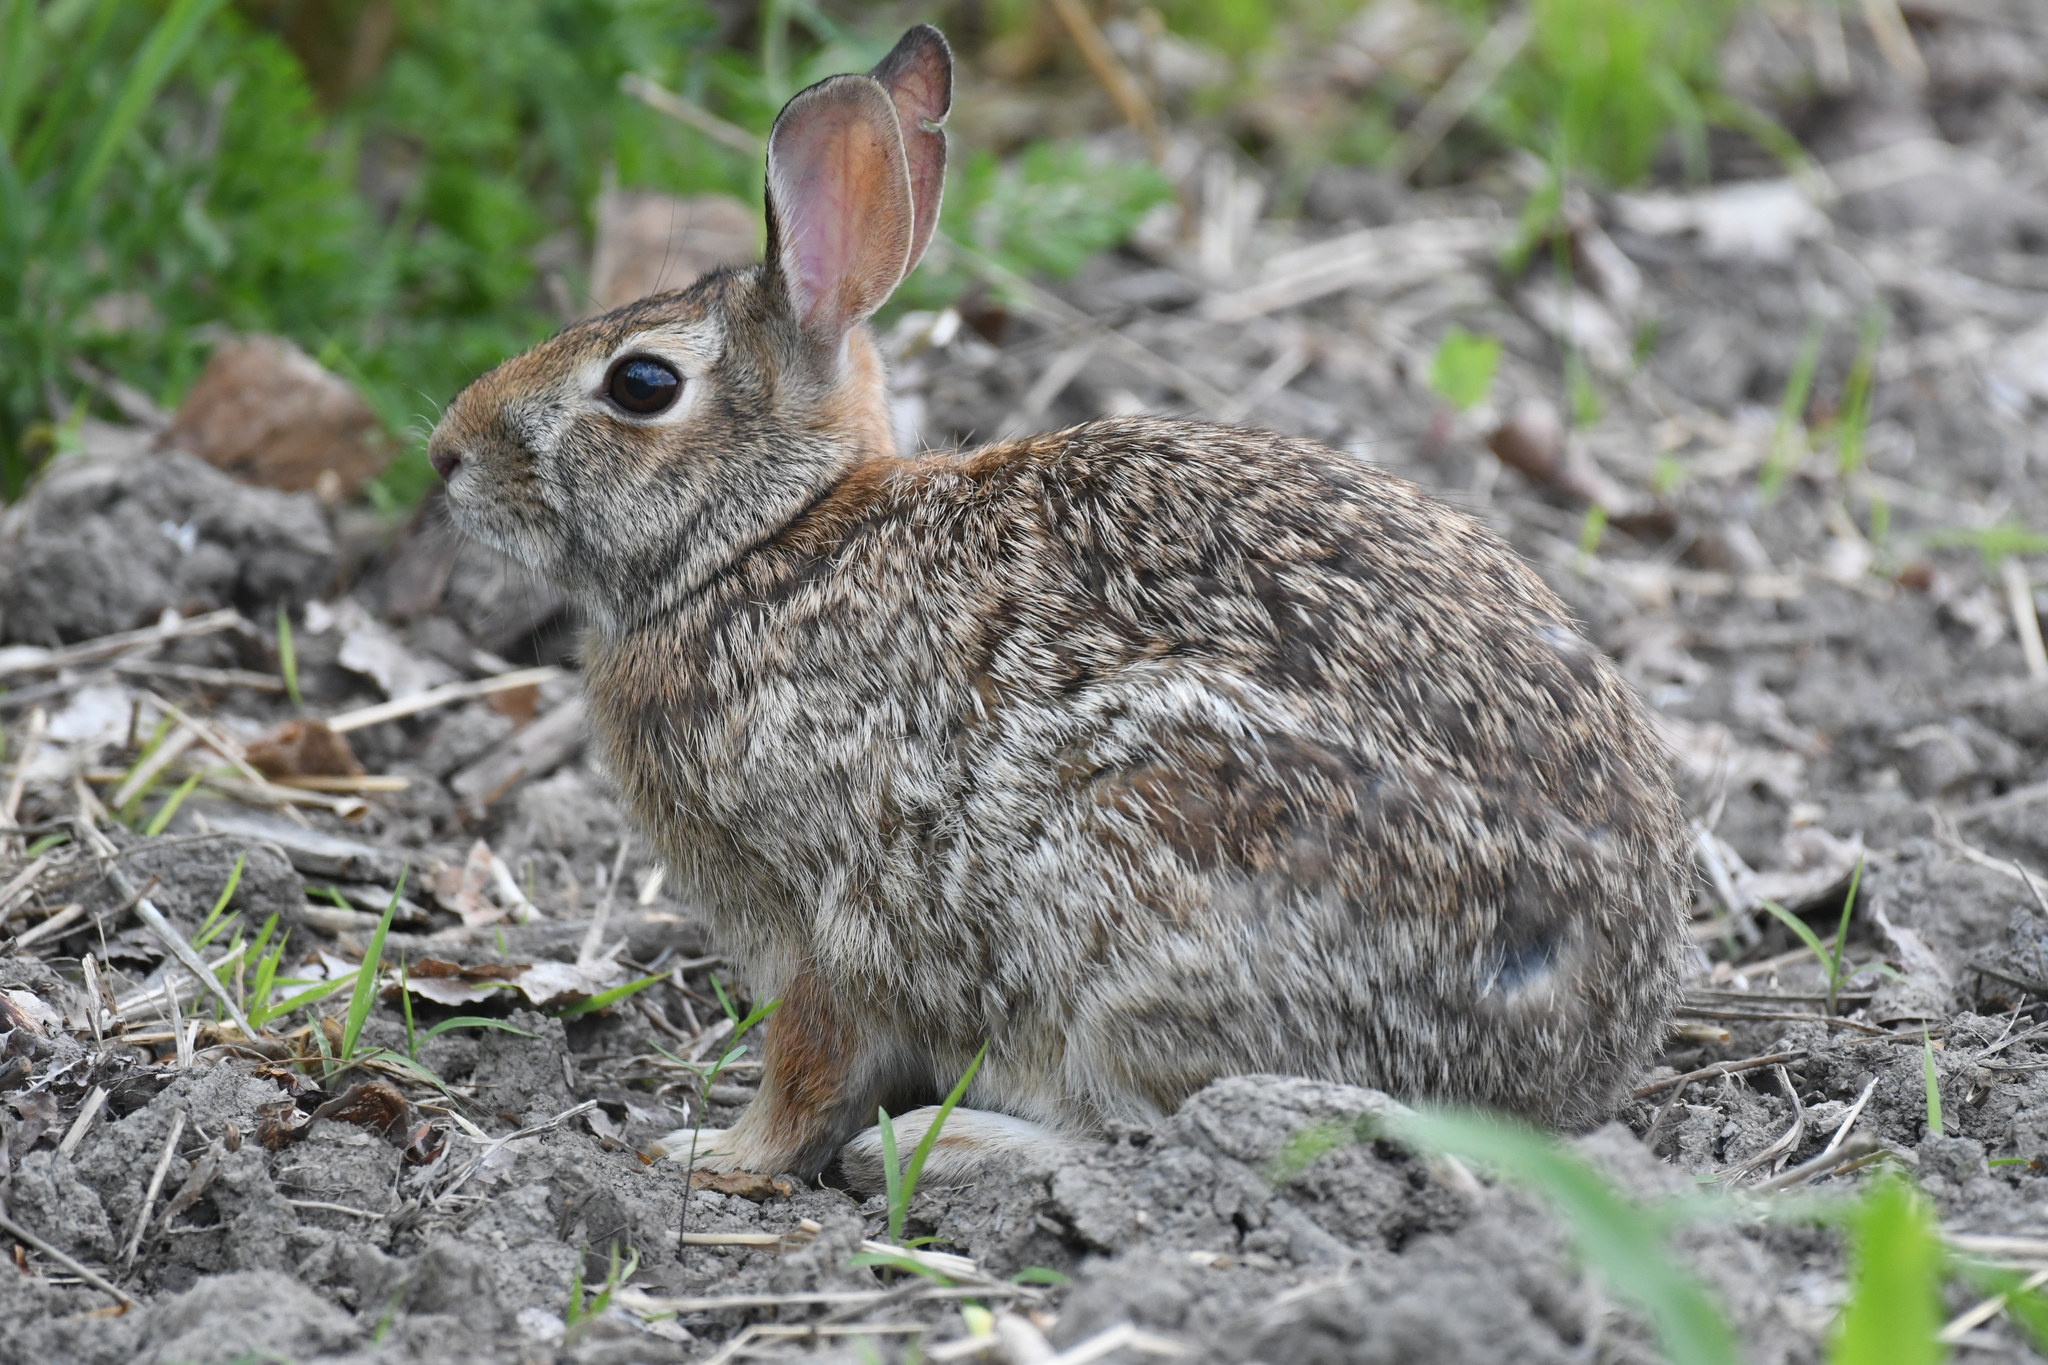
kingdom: Animalia
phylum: Chordata
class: Mammalia
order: Lagomorpha
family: Leporidae
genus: Sylvilagus
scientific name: Sylvilagus floridanus
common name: Eastern cottontail
